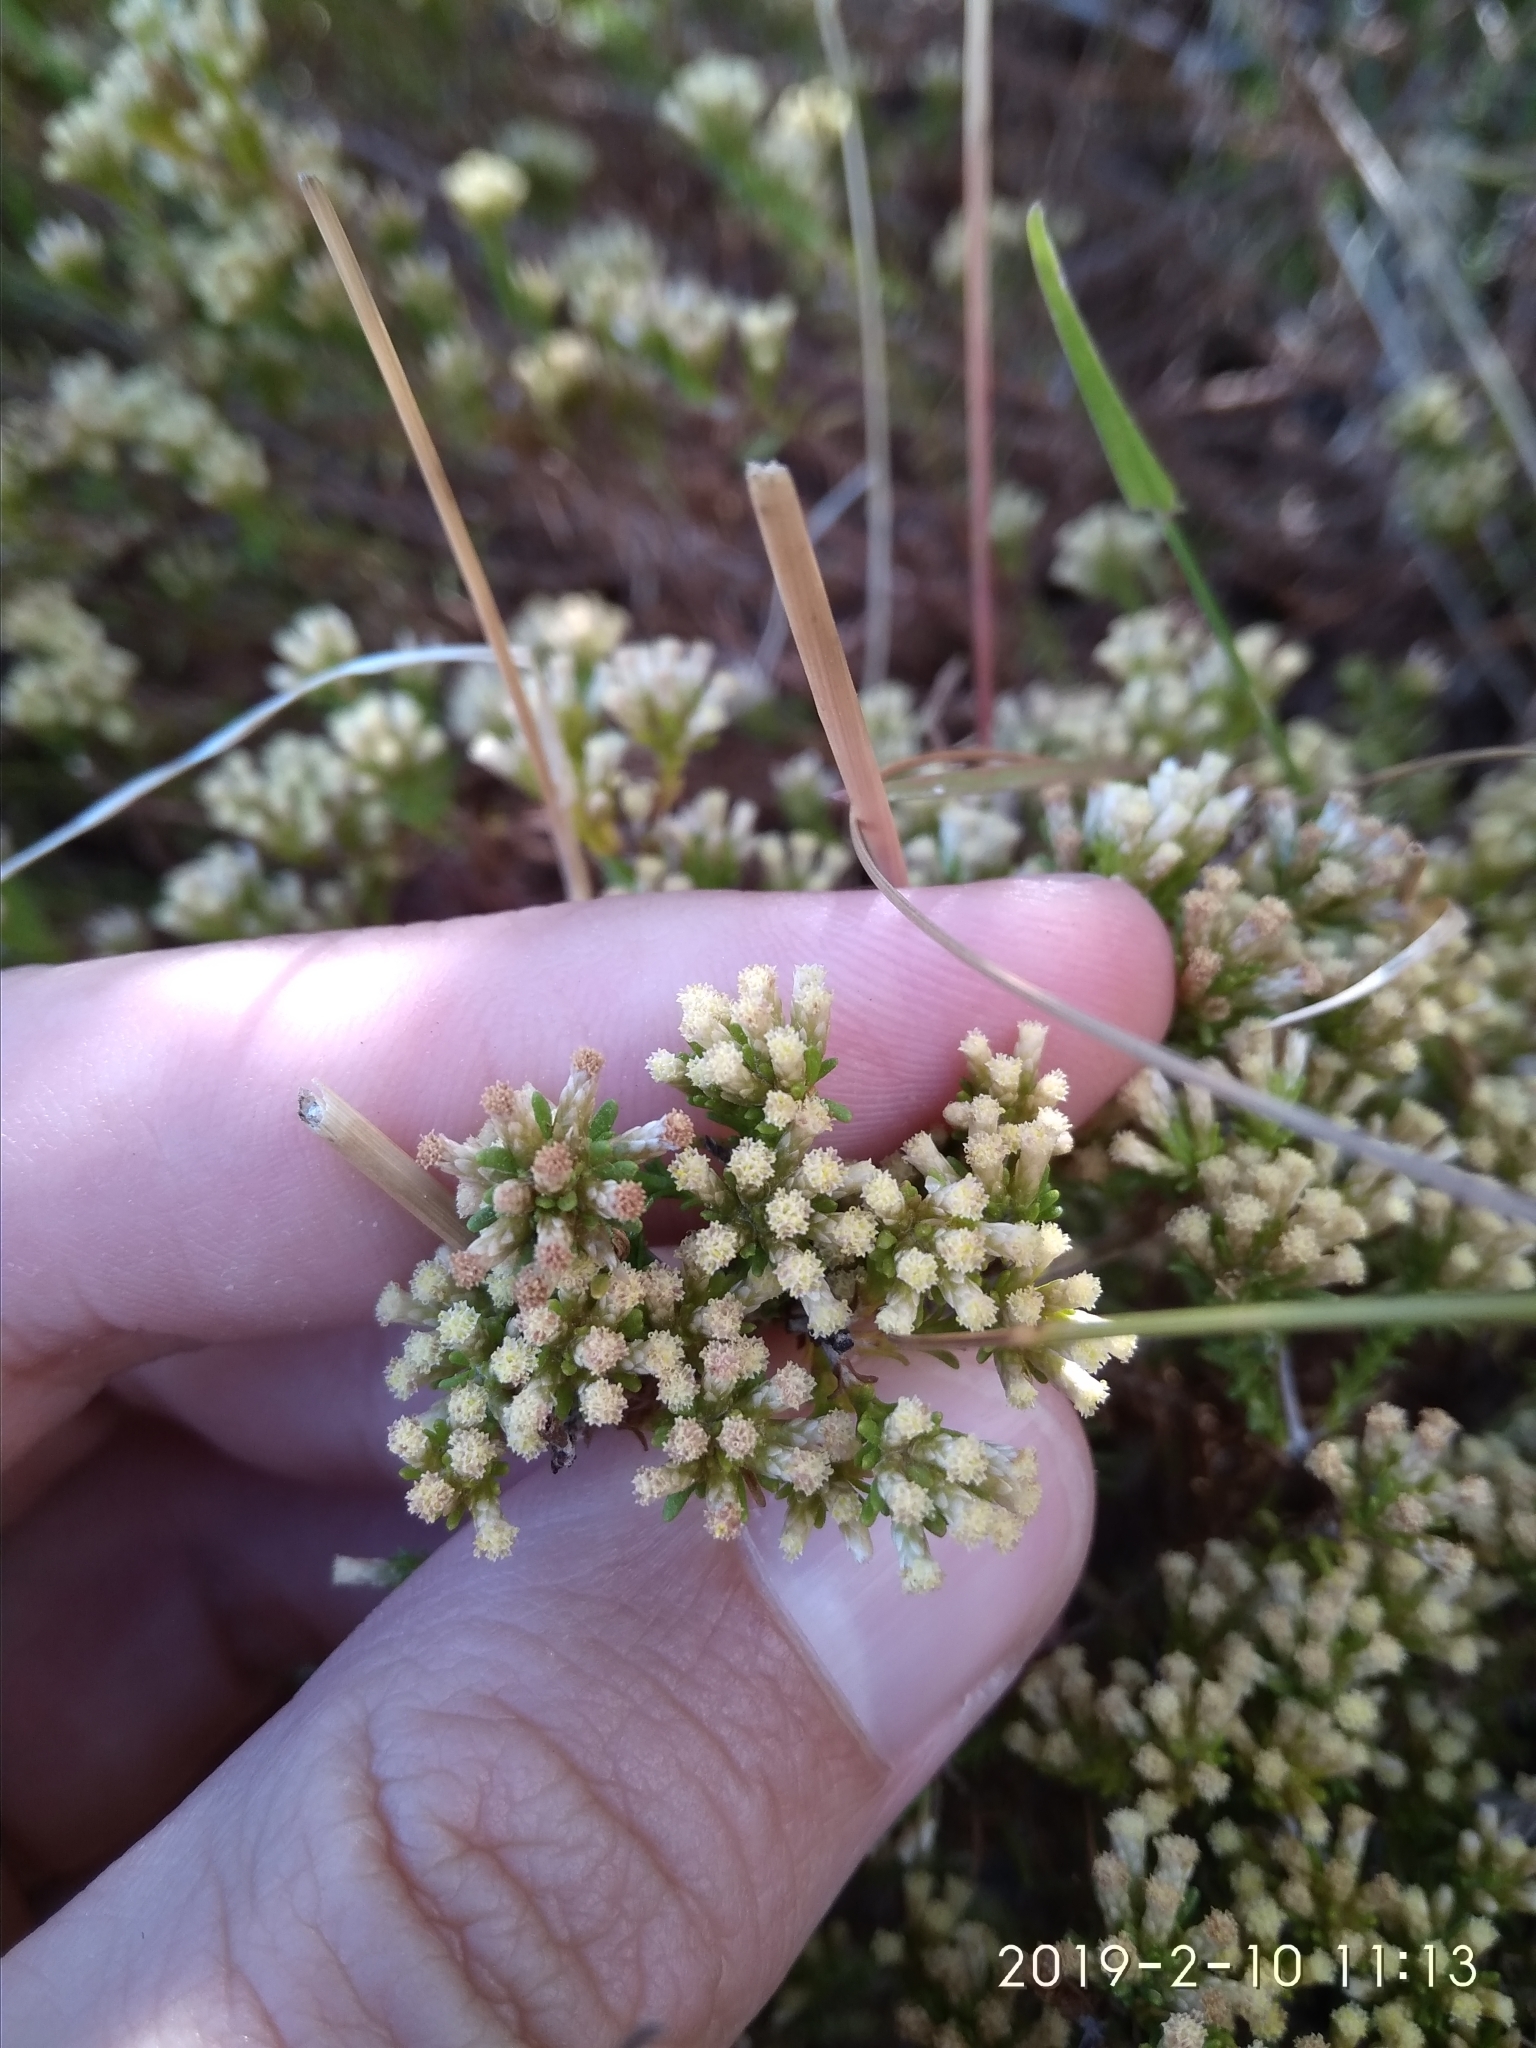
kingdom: Plantae
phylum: Tracheophyta
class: Magnoliopsida
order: Asterales
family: Asteraceae
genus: Helichrysum
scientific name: Helichrysum niveum
